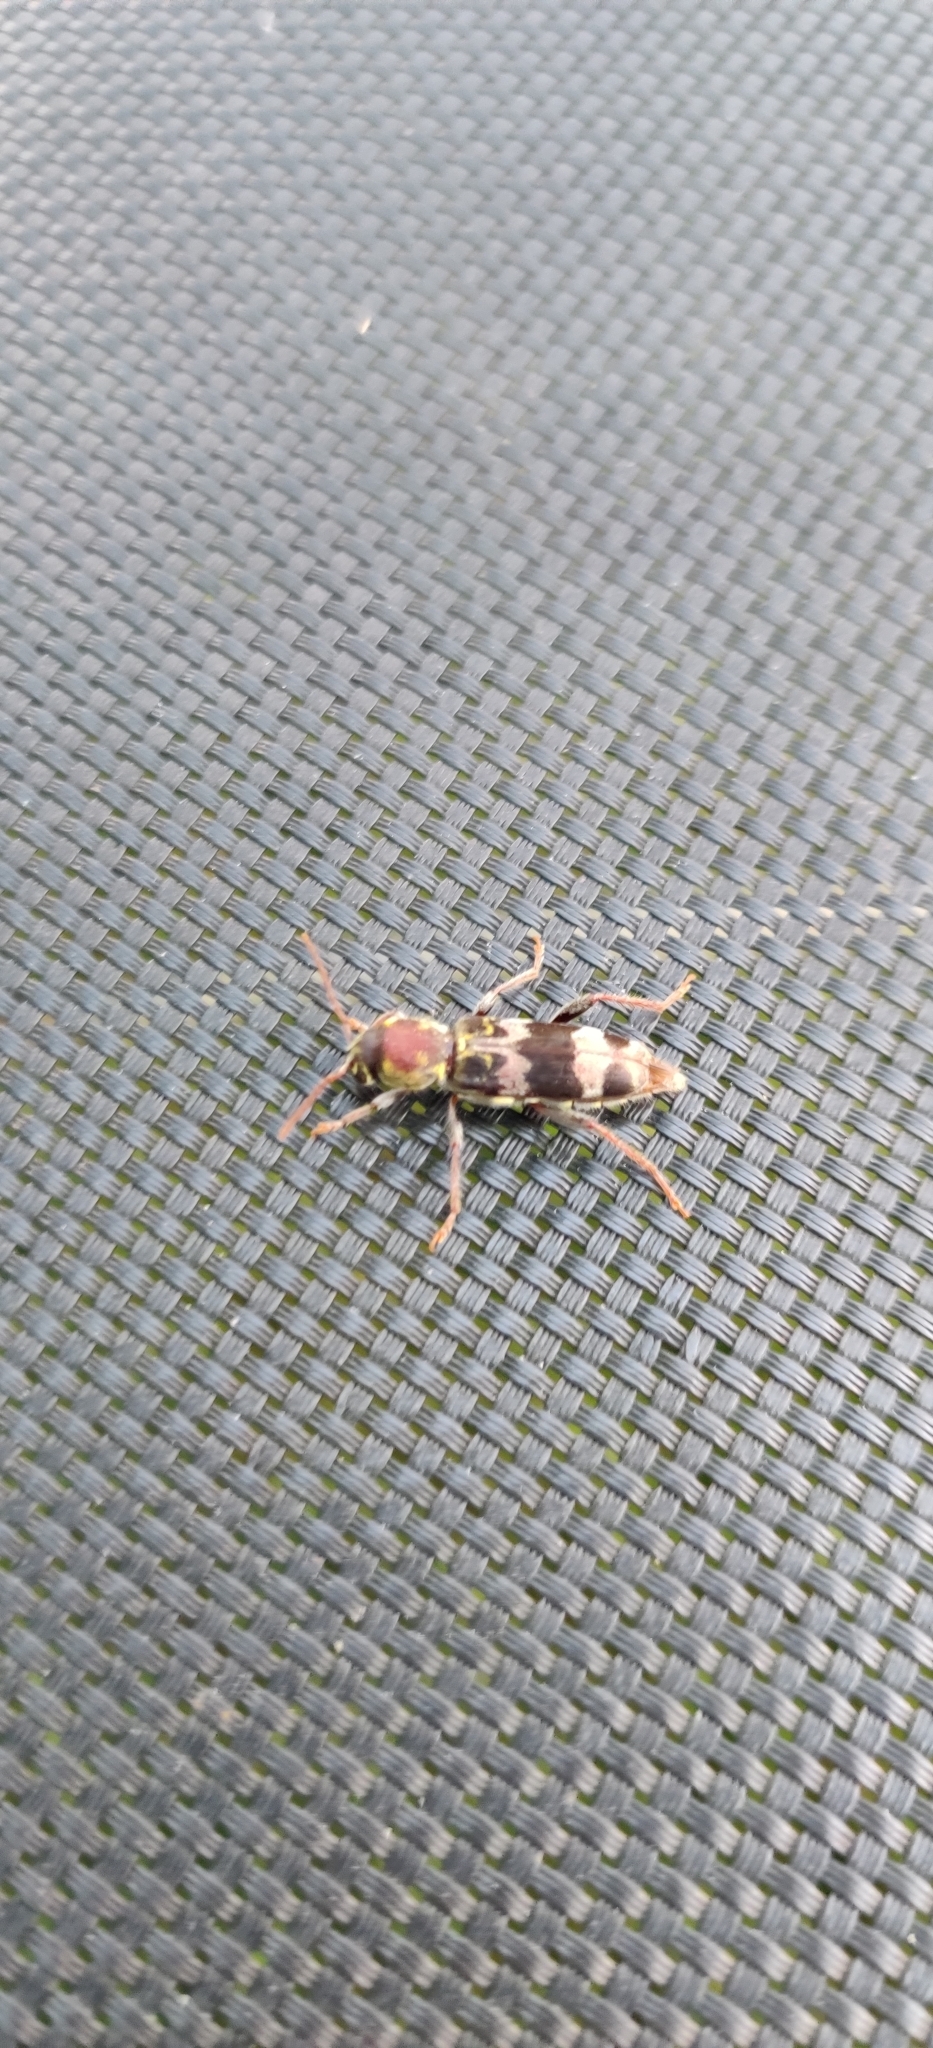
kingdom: Animalia
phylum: Arthropoda
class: Insecta
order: Coleoptera
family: Cerambycidae
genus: Xylotrechus
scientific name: Xylotrechus colonus
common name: Long-horned beetle
